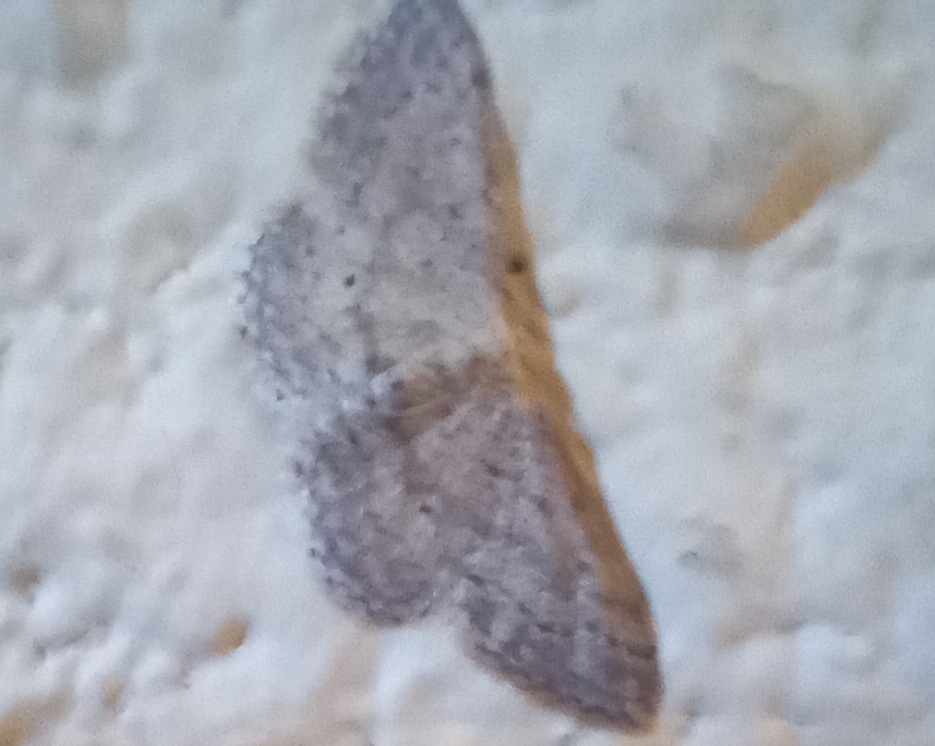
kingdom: Animalia
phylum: Arthropoda
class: Insecta
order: Lepidoptera
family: Geometridae
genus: Idaea
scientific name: Idaea seriata
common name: Small dusty wave
